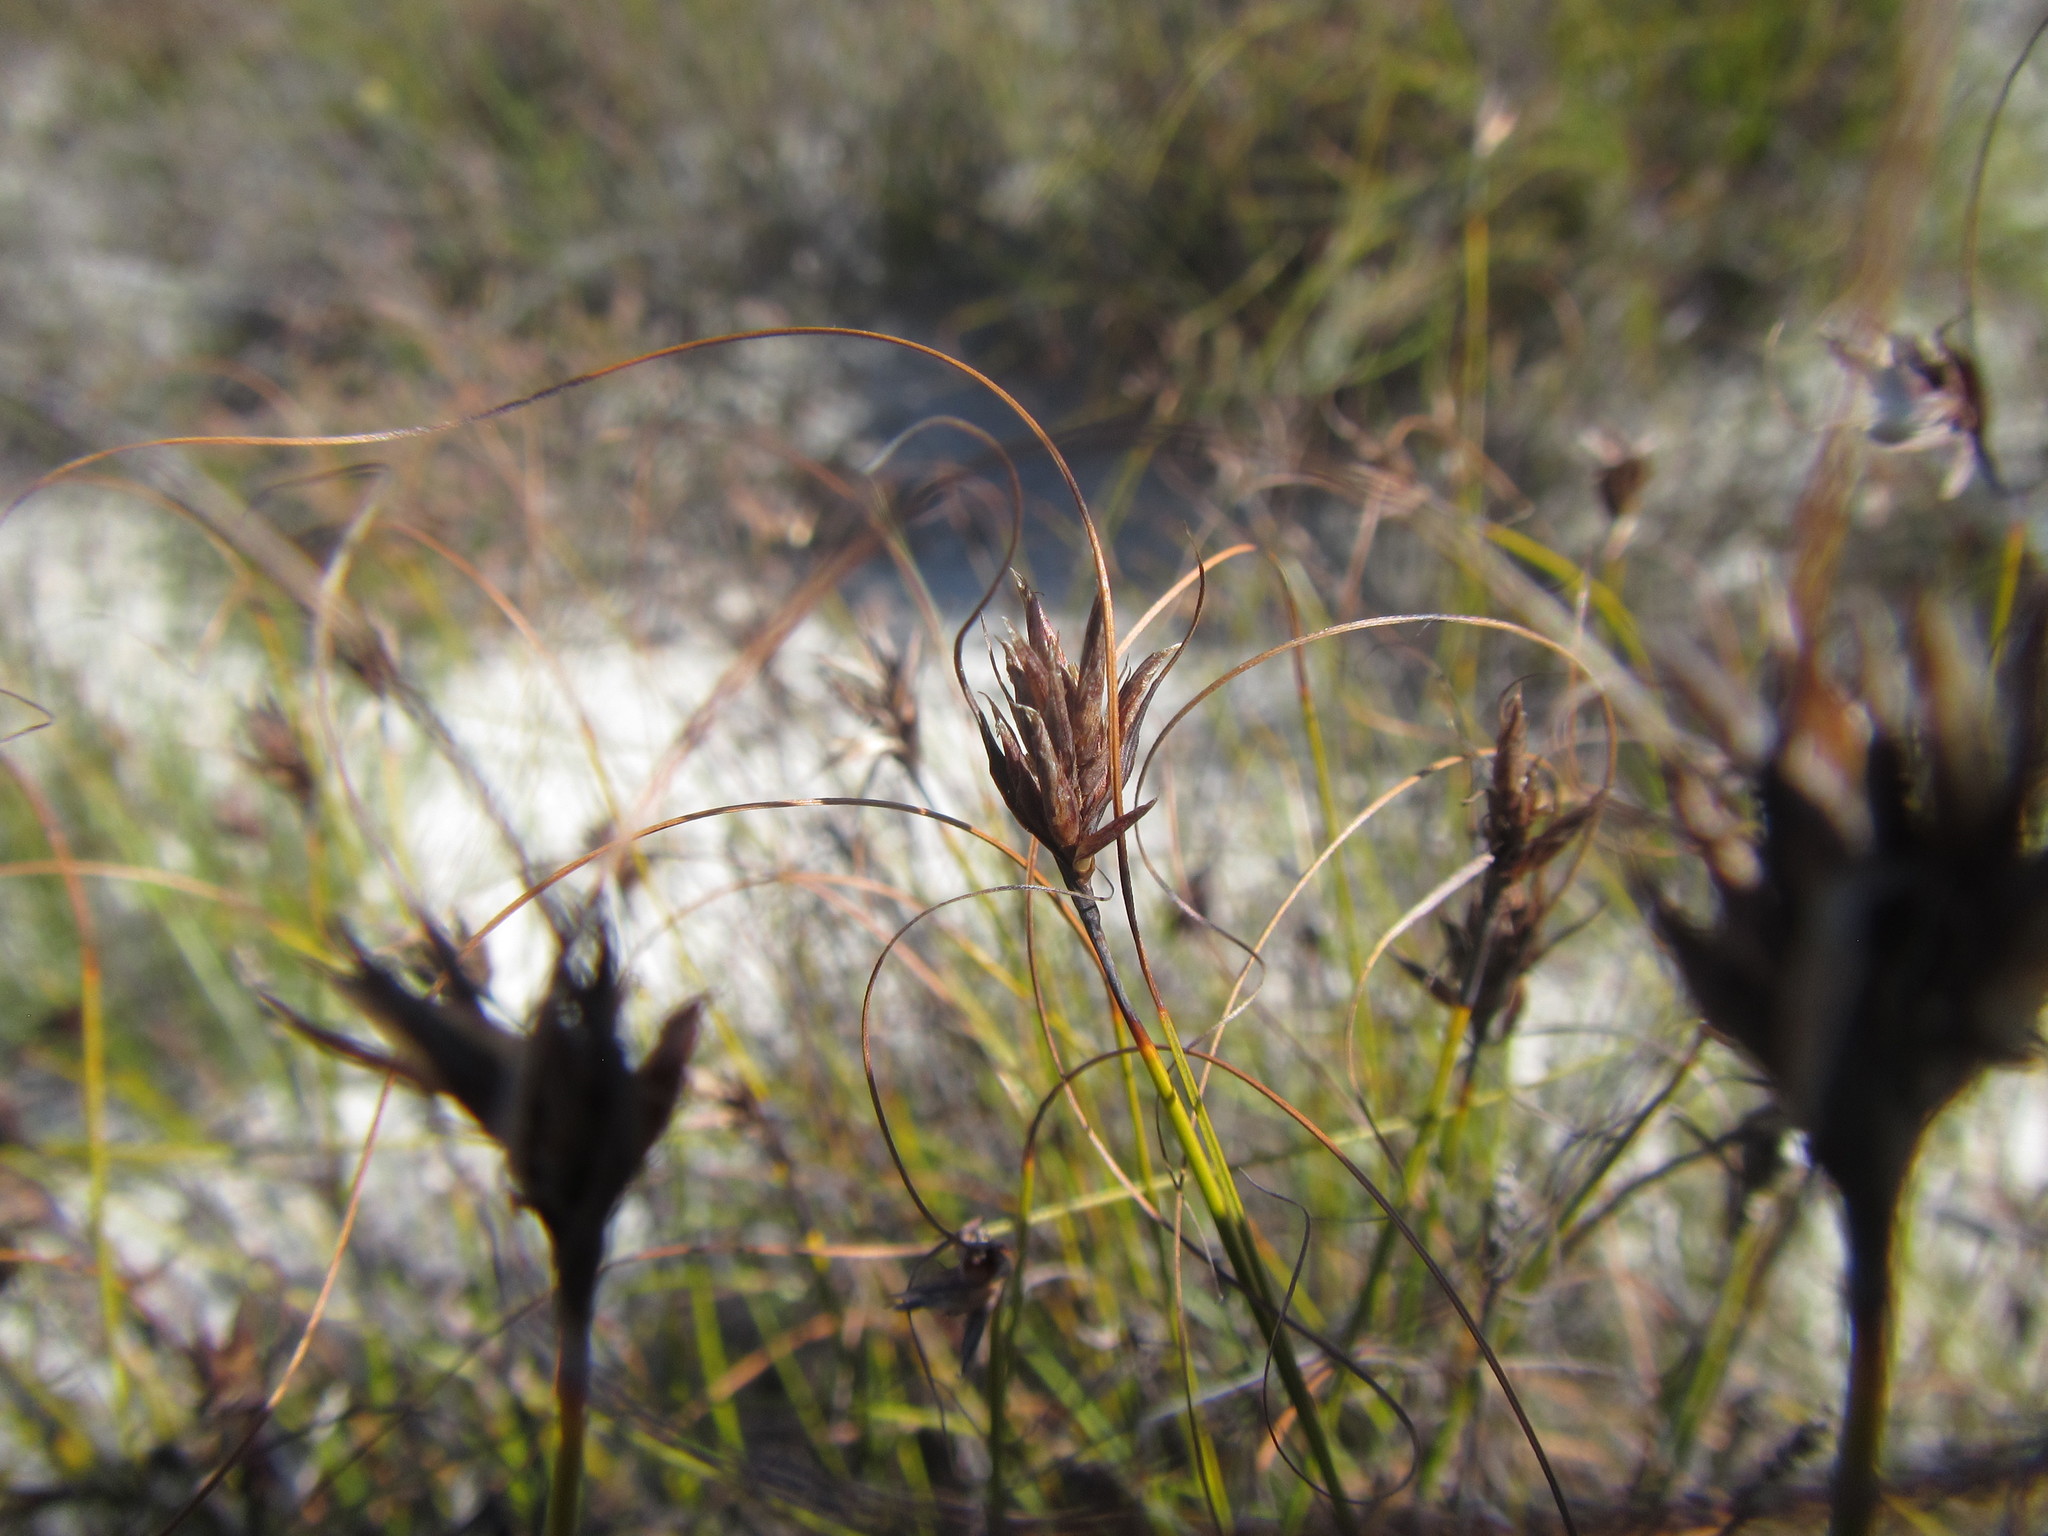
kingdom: Plantae
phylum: Tracheophyta
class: Liliopsida
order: Poales
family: Cyperaceae
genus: Tetraria
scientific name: Tetraria crinifolia
